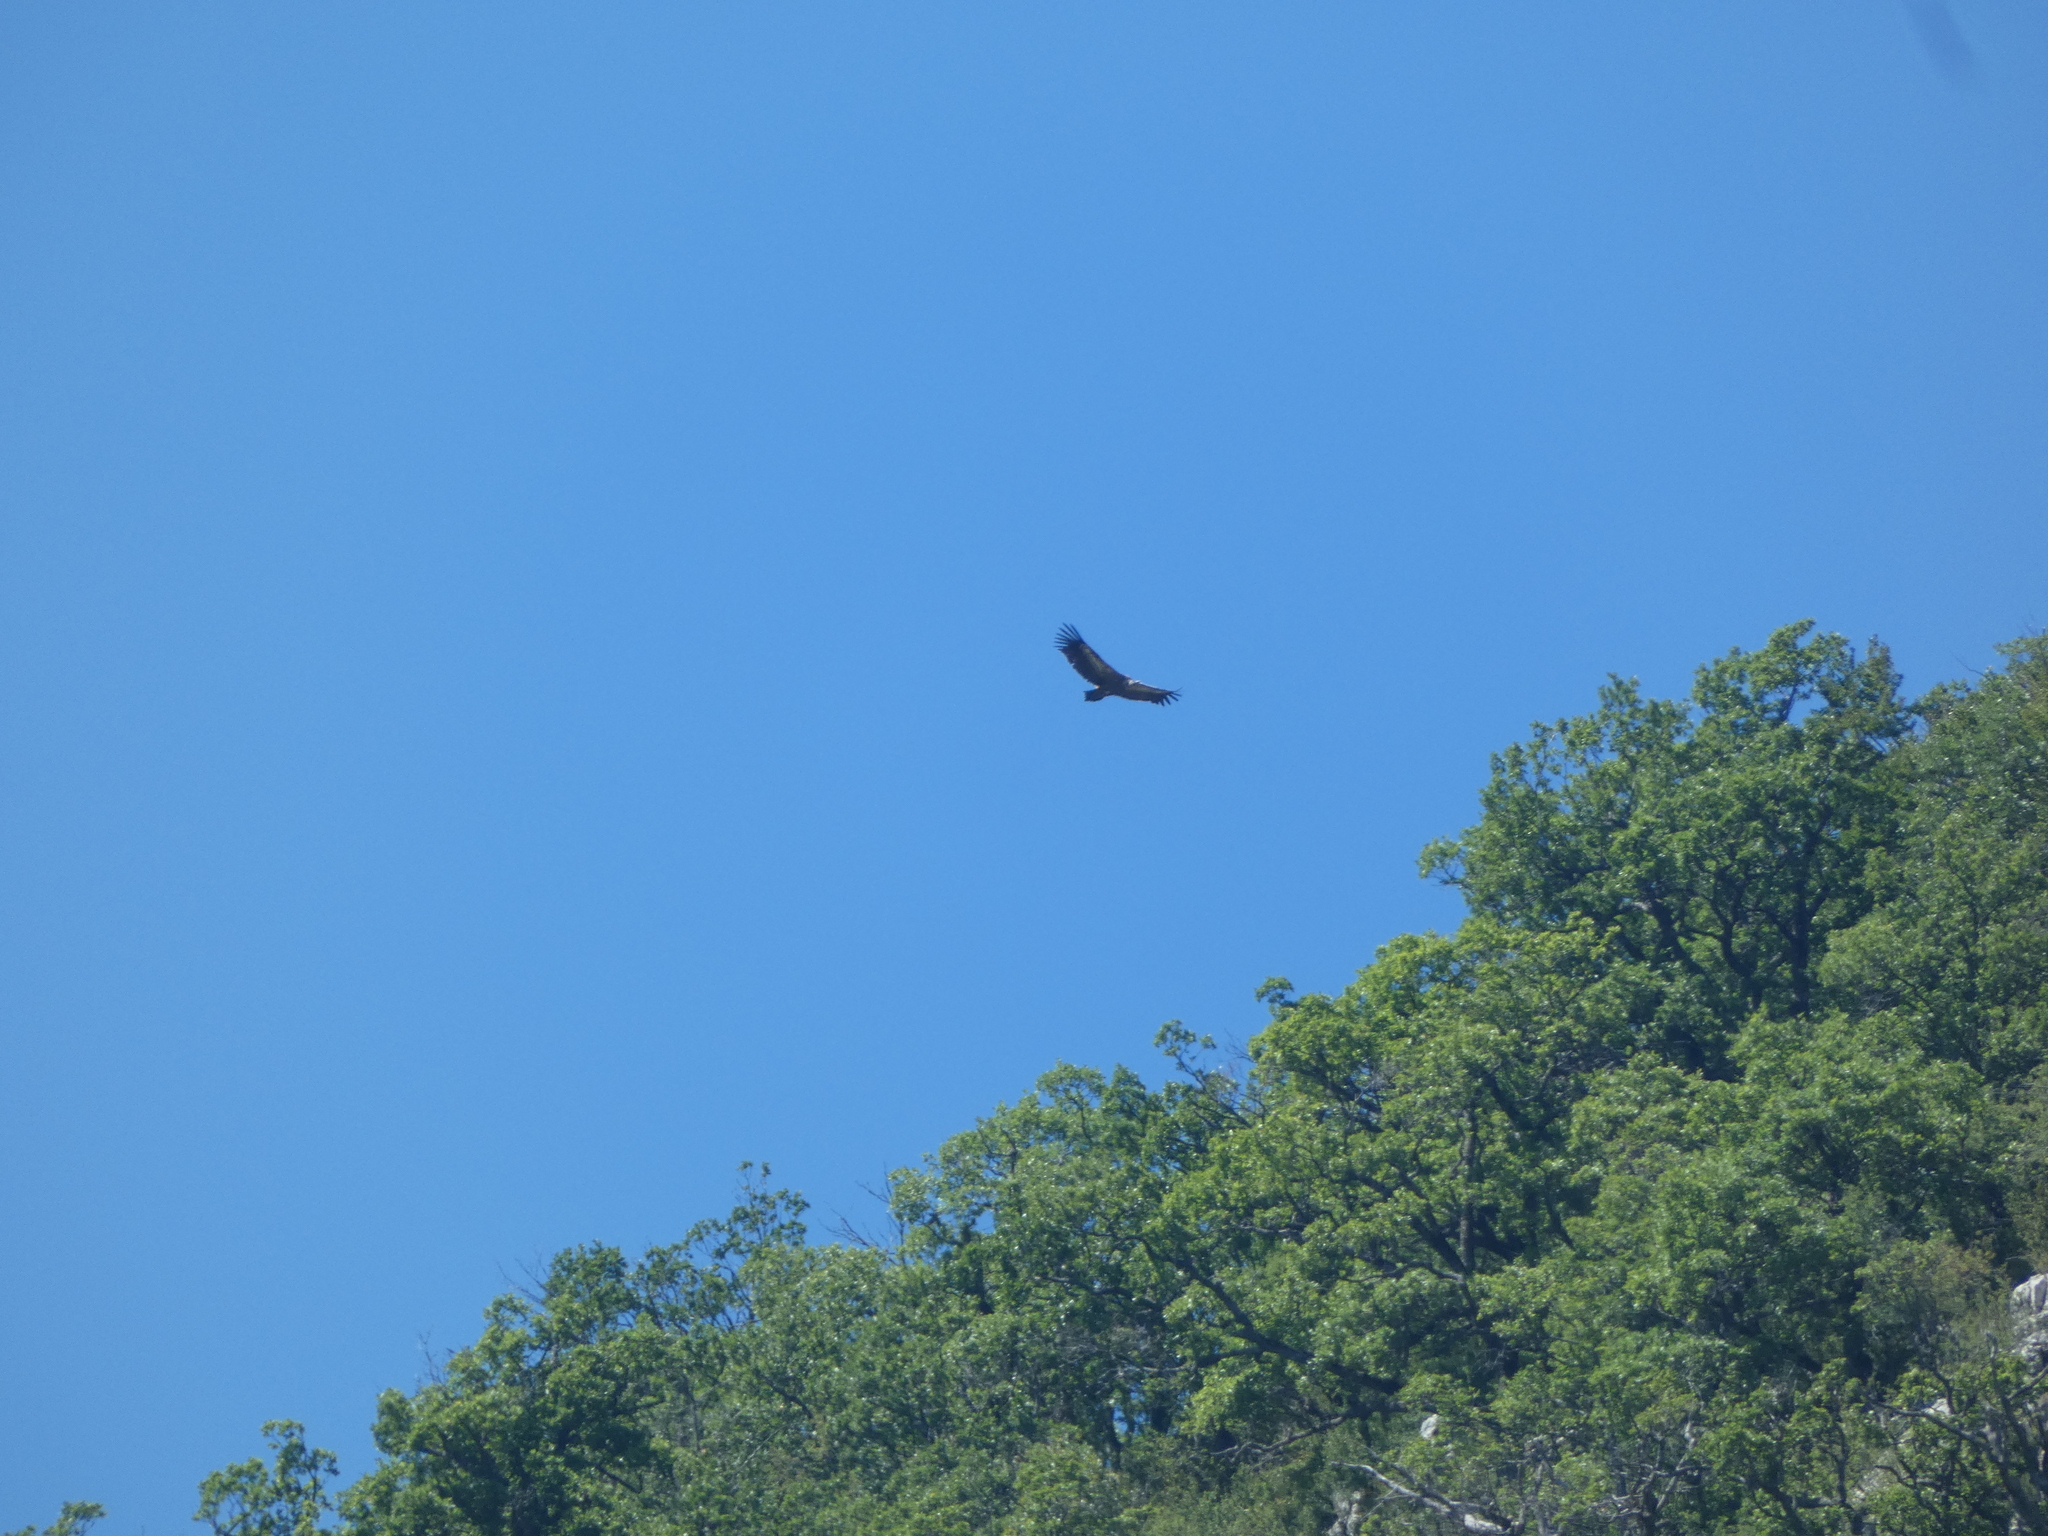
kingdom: Animalia
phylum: Chordata
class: Aves
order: Accipitriformes
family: Accipitridae
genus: Gyps
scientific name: Gyps fulvus
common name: Griffon vulture
